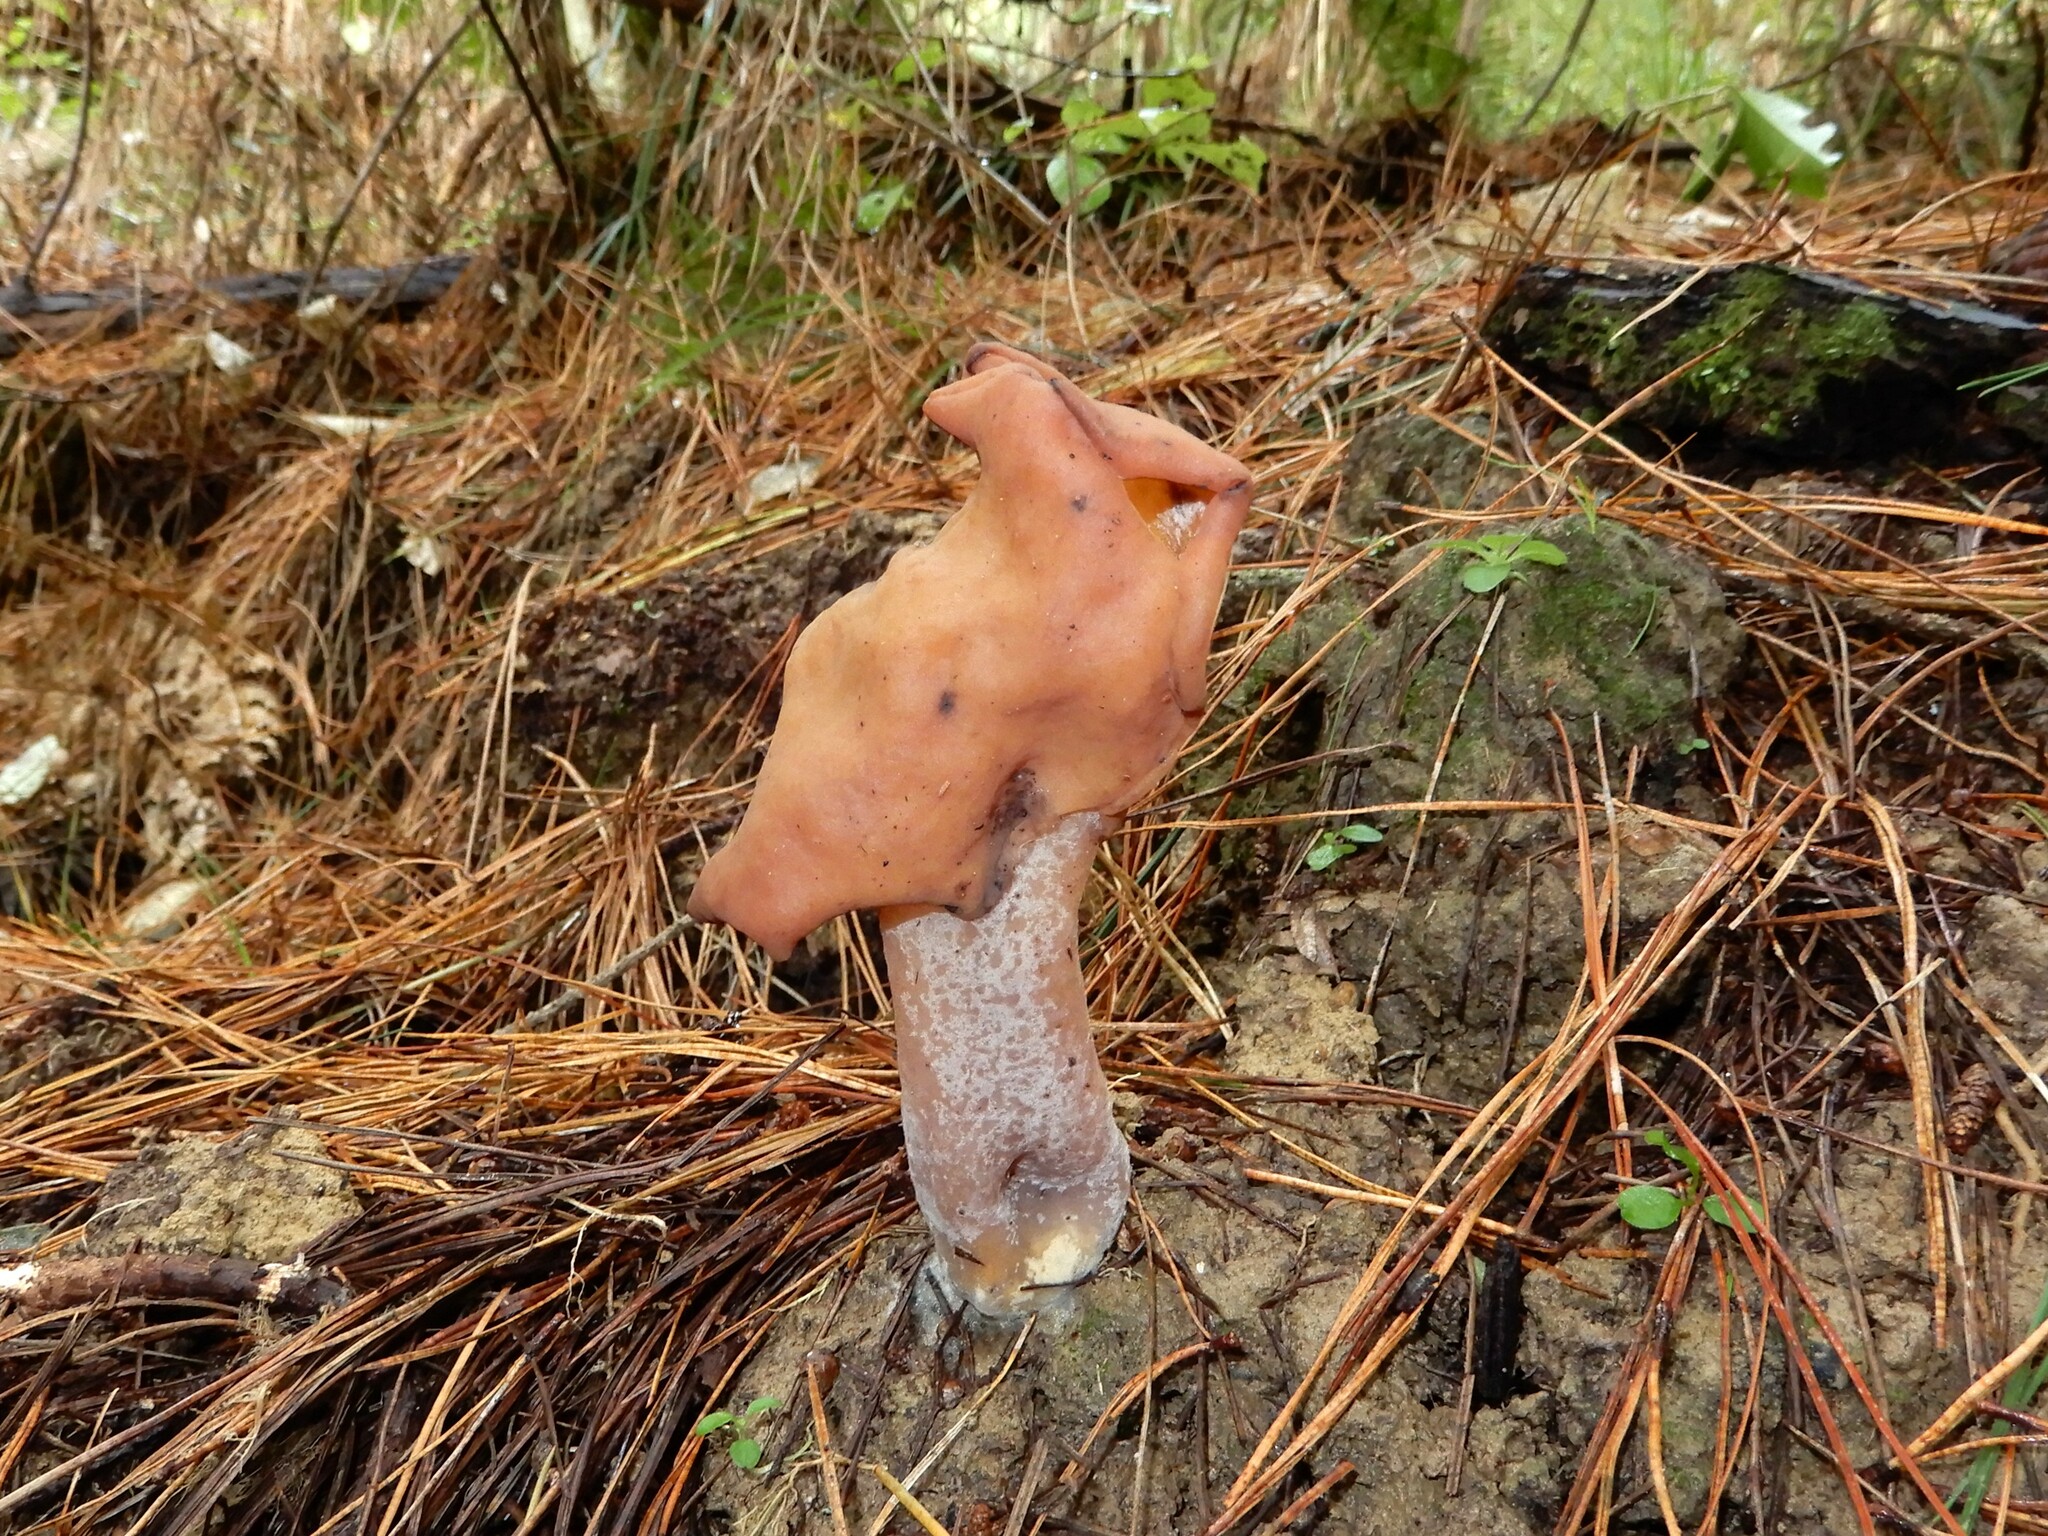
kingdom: Fungi
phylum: Ascomycota
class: Pezizomycetes
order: Pezizales
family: Discinaceae
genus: Gyromitra
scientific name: Gyromitra infula
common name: Pouched false morel
